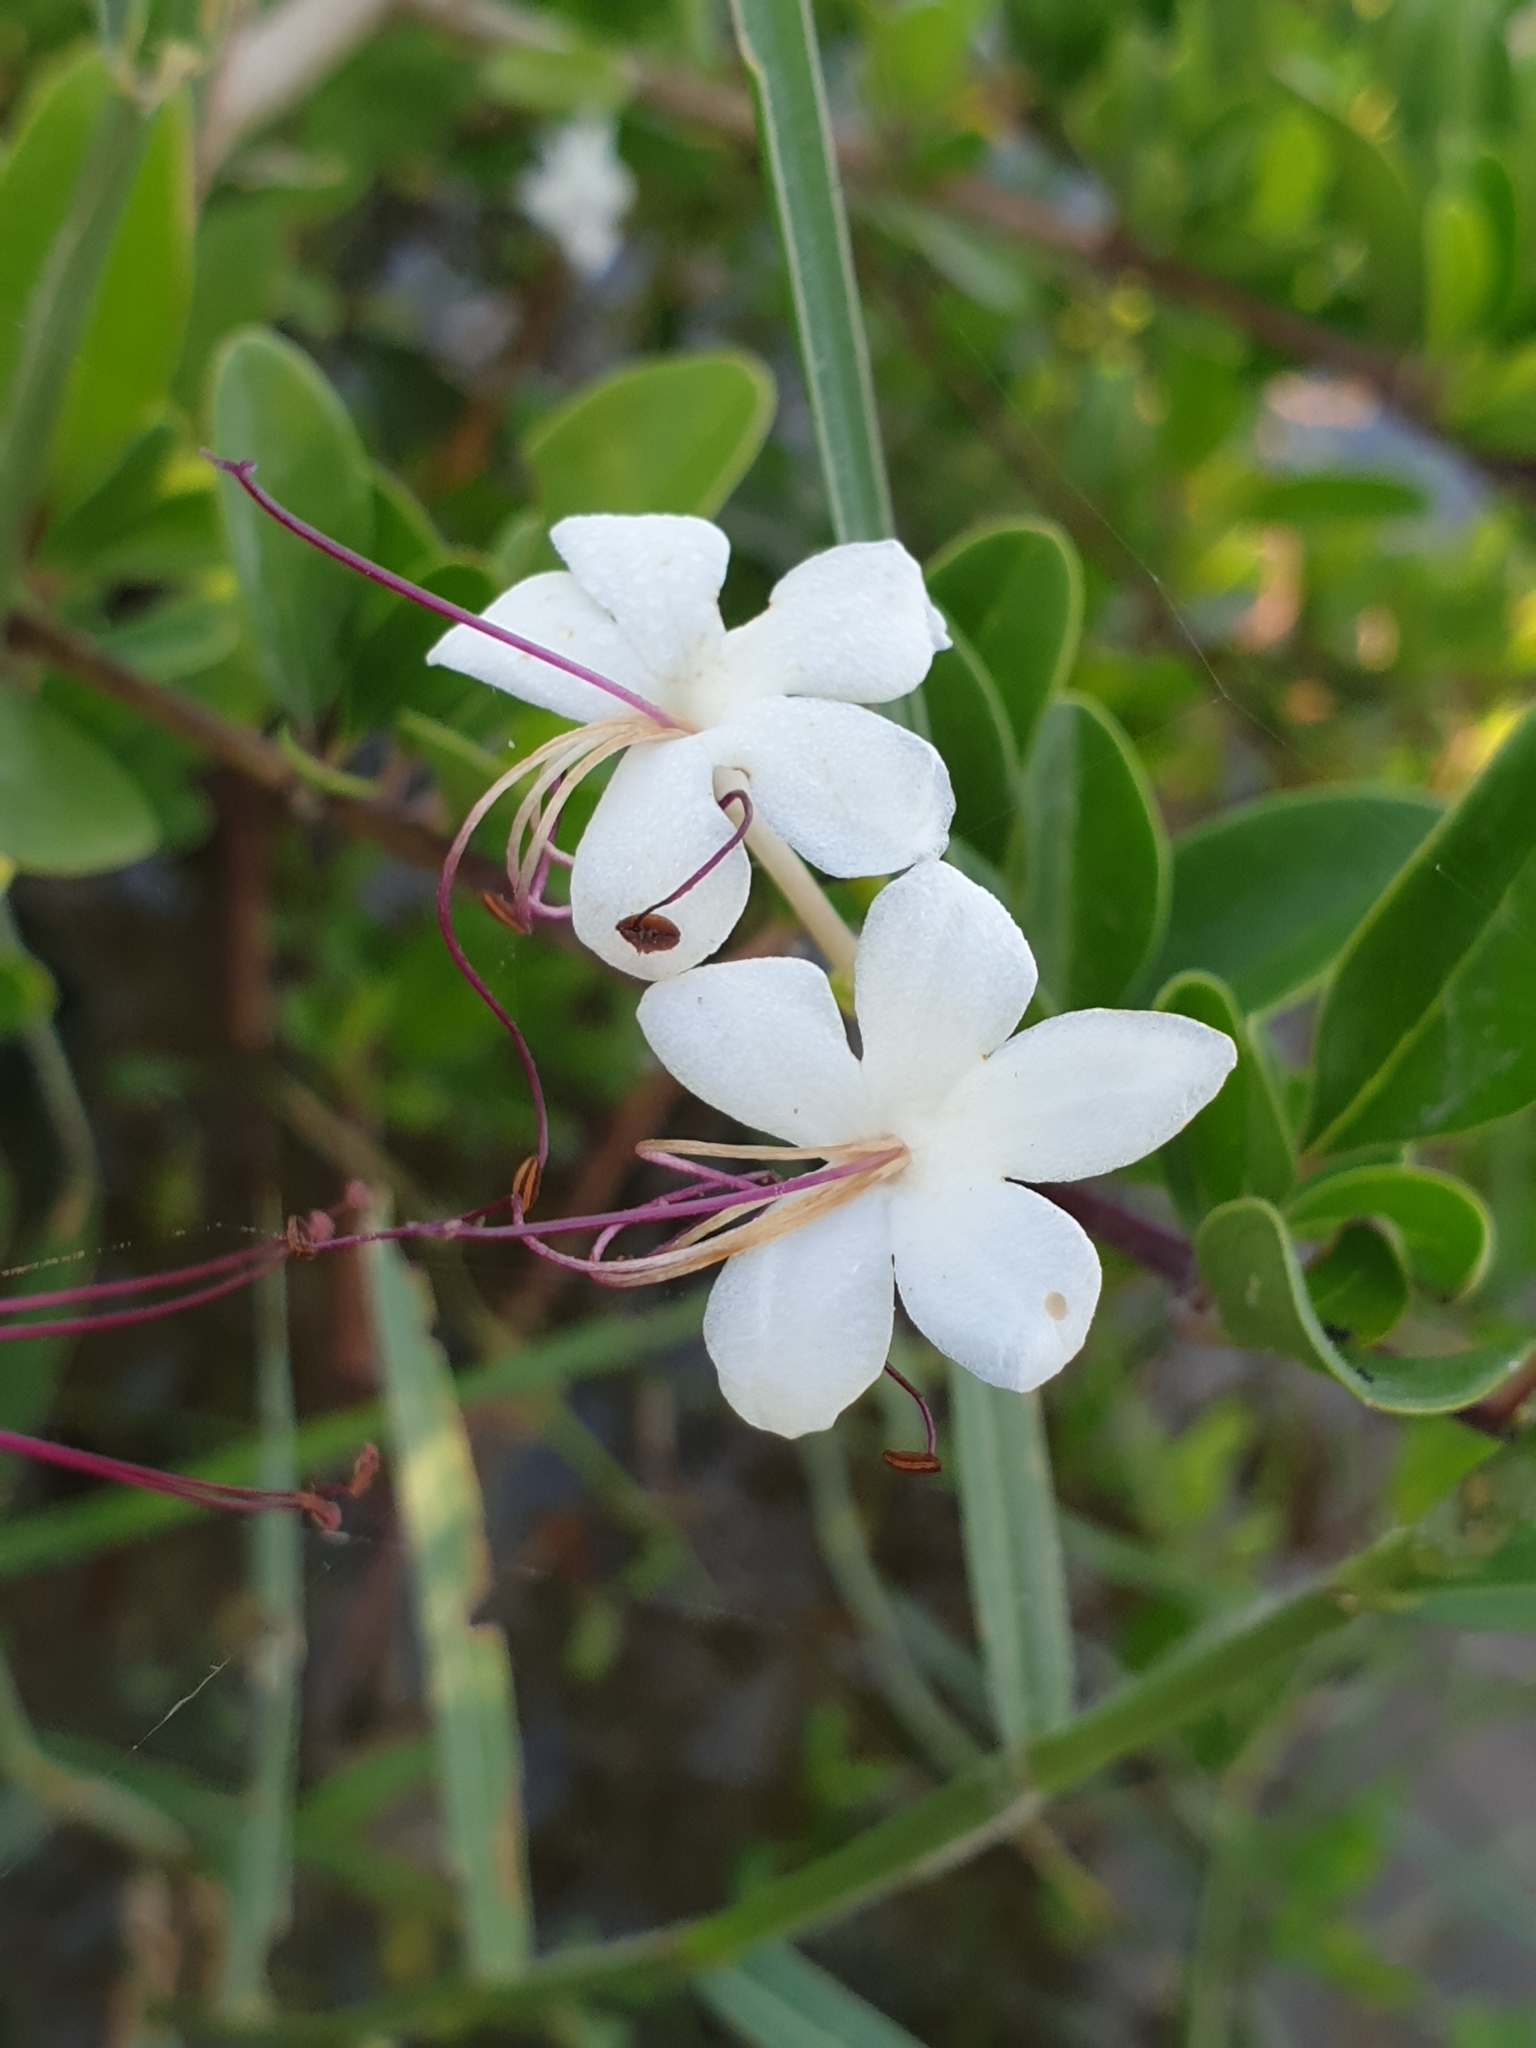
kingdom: Plantae
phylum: Tracheophyta
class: Magnoliopsida
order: Lamiales
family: Lamiaceae
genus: Volkameria
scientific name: Volkameria inermis
